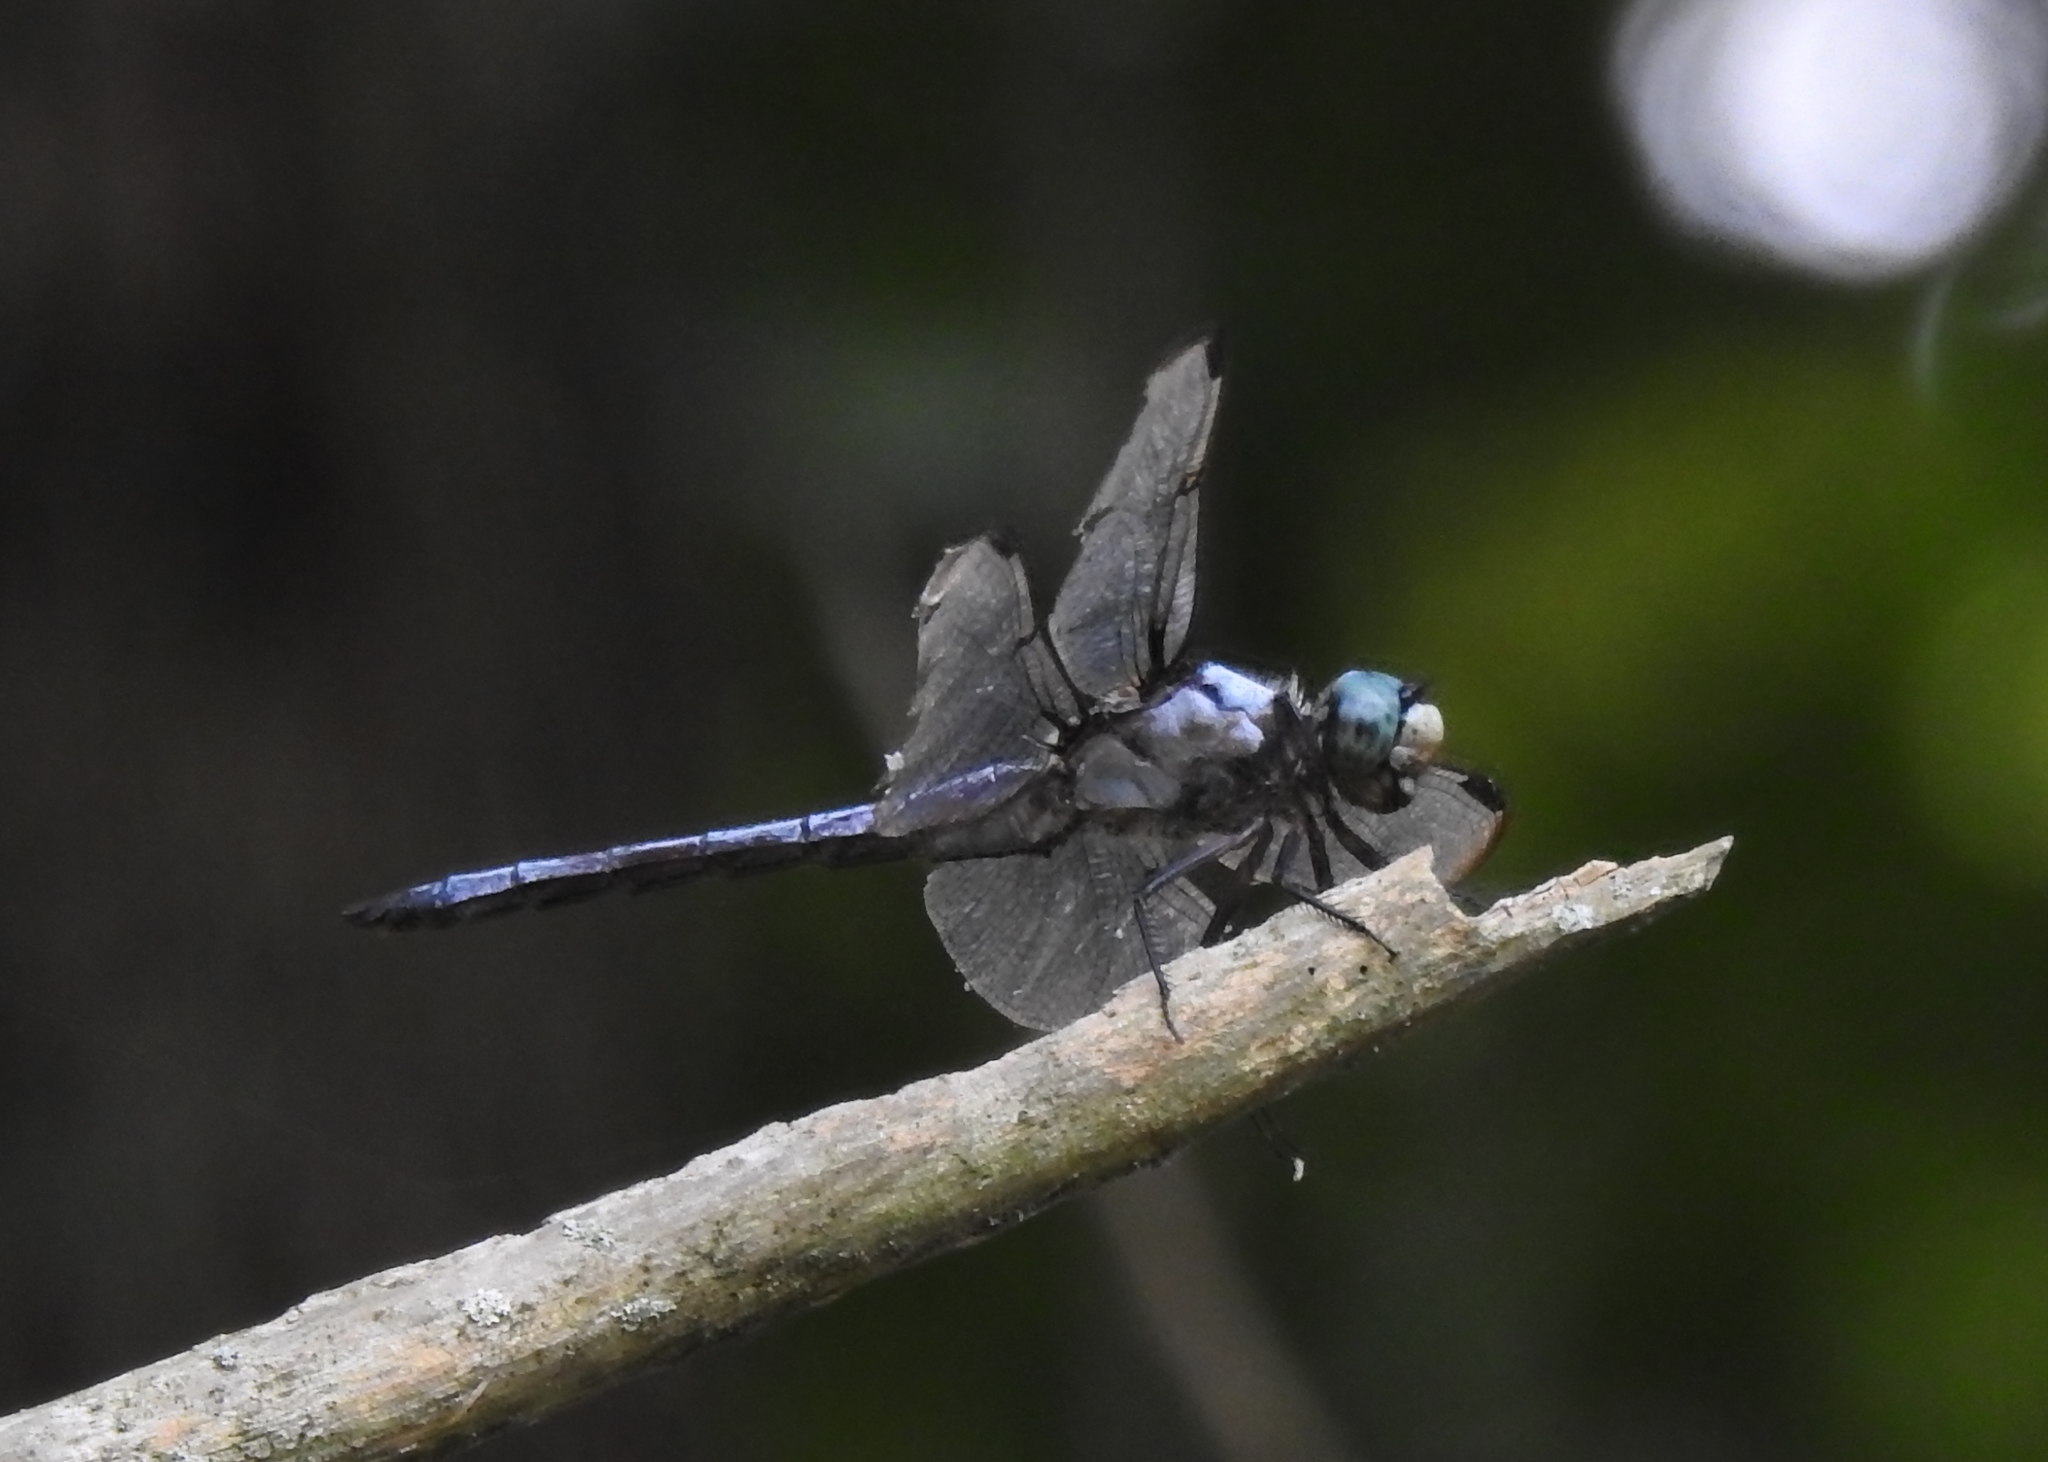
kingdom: Animalia
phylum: Arthropoda
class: Insecta
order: Odonata
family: Libellulidae
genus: Libellula
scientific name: Libellula vibrans
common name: Great blue skimmer
